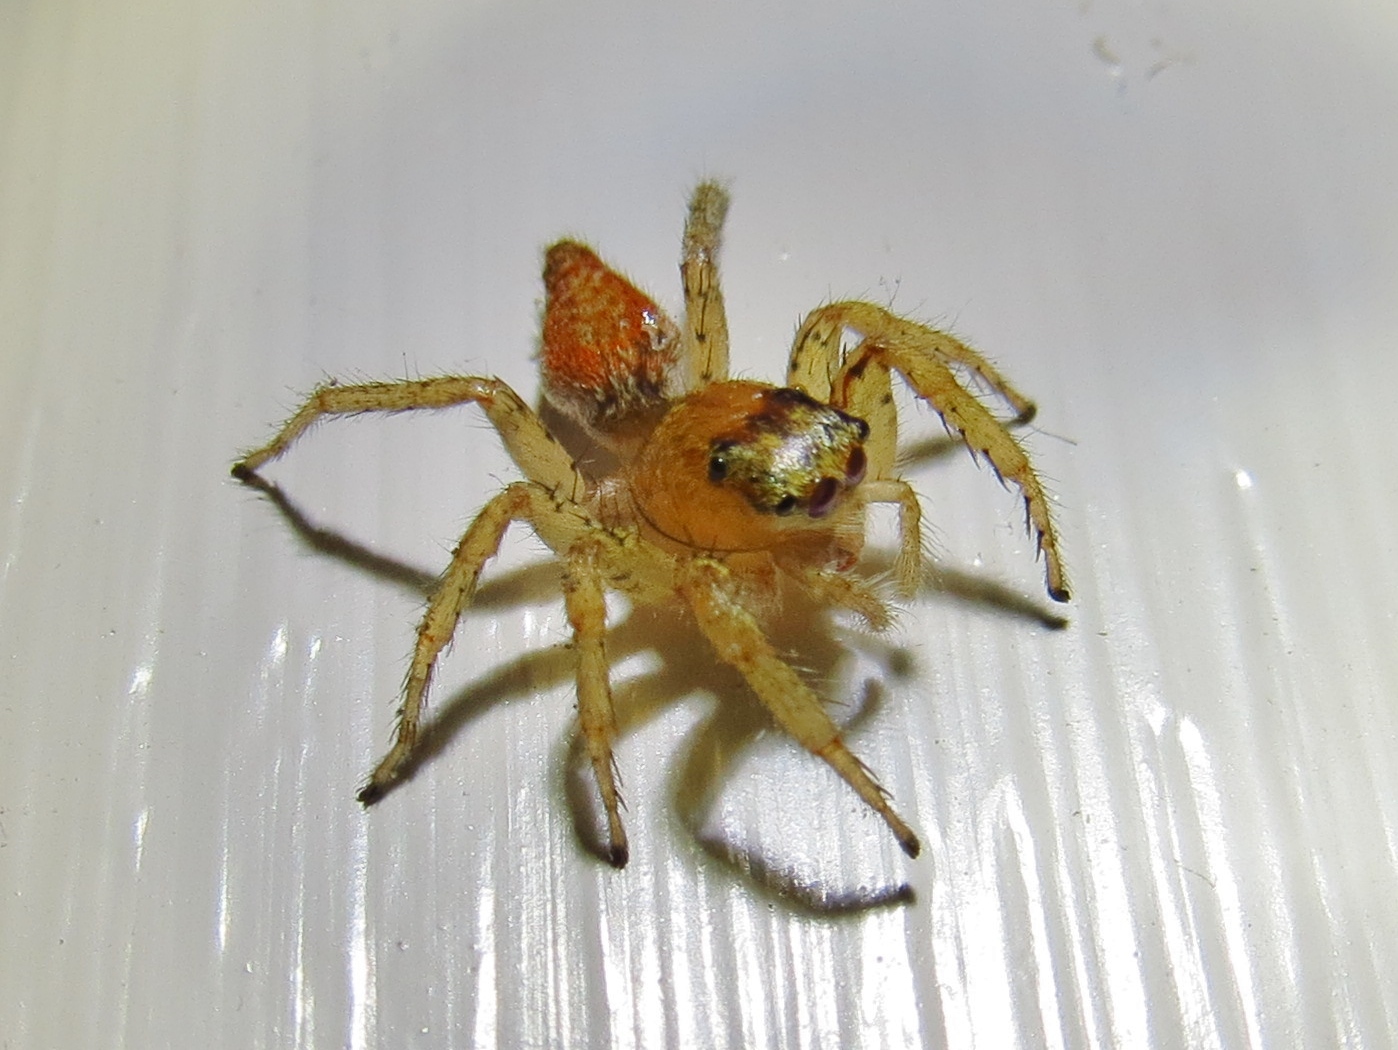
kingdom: Animalia
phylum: Arthropoda
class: Arachnida
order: Araneae
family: Salticidae
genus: Maevia
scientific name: Maevia inclemens
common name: Dimorphic jumper
